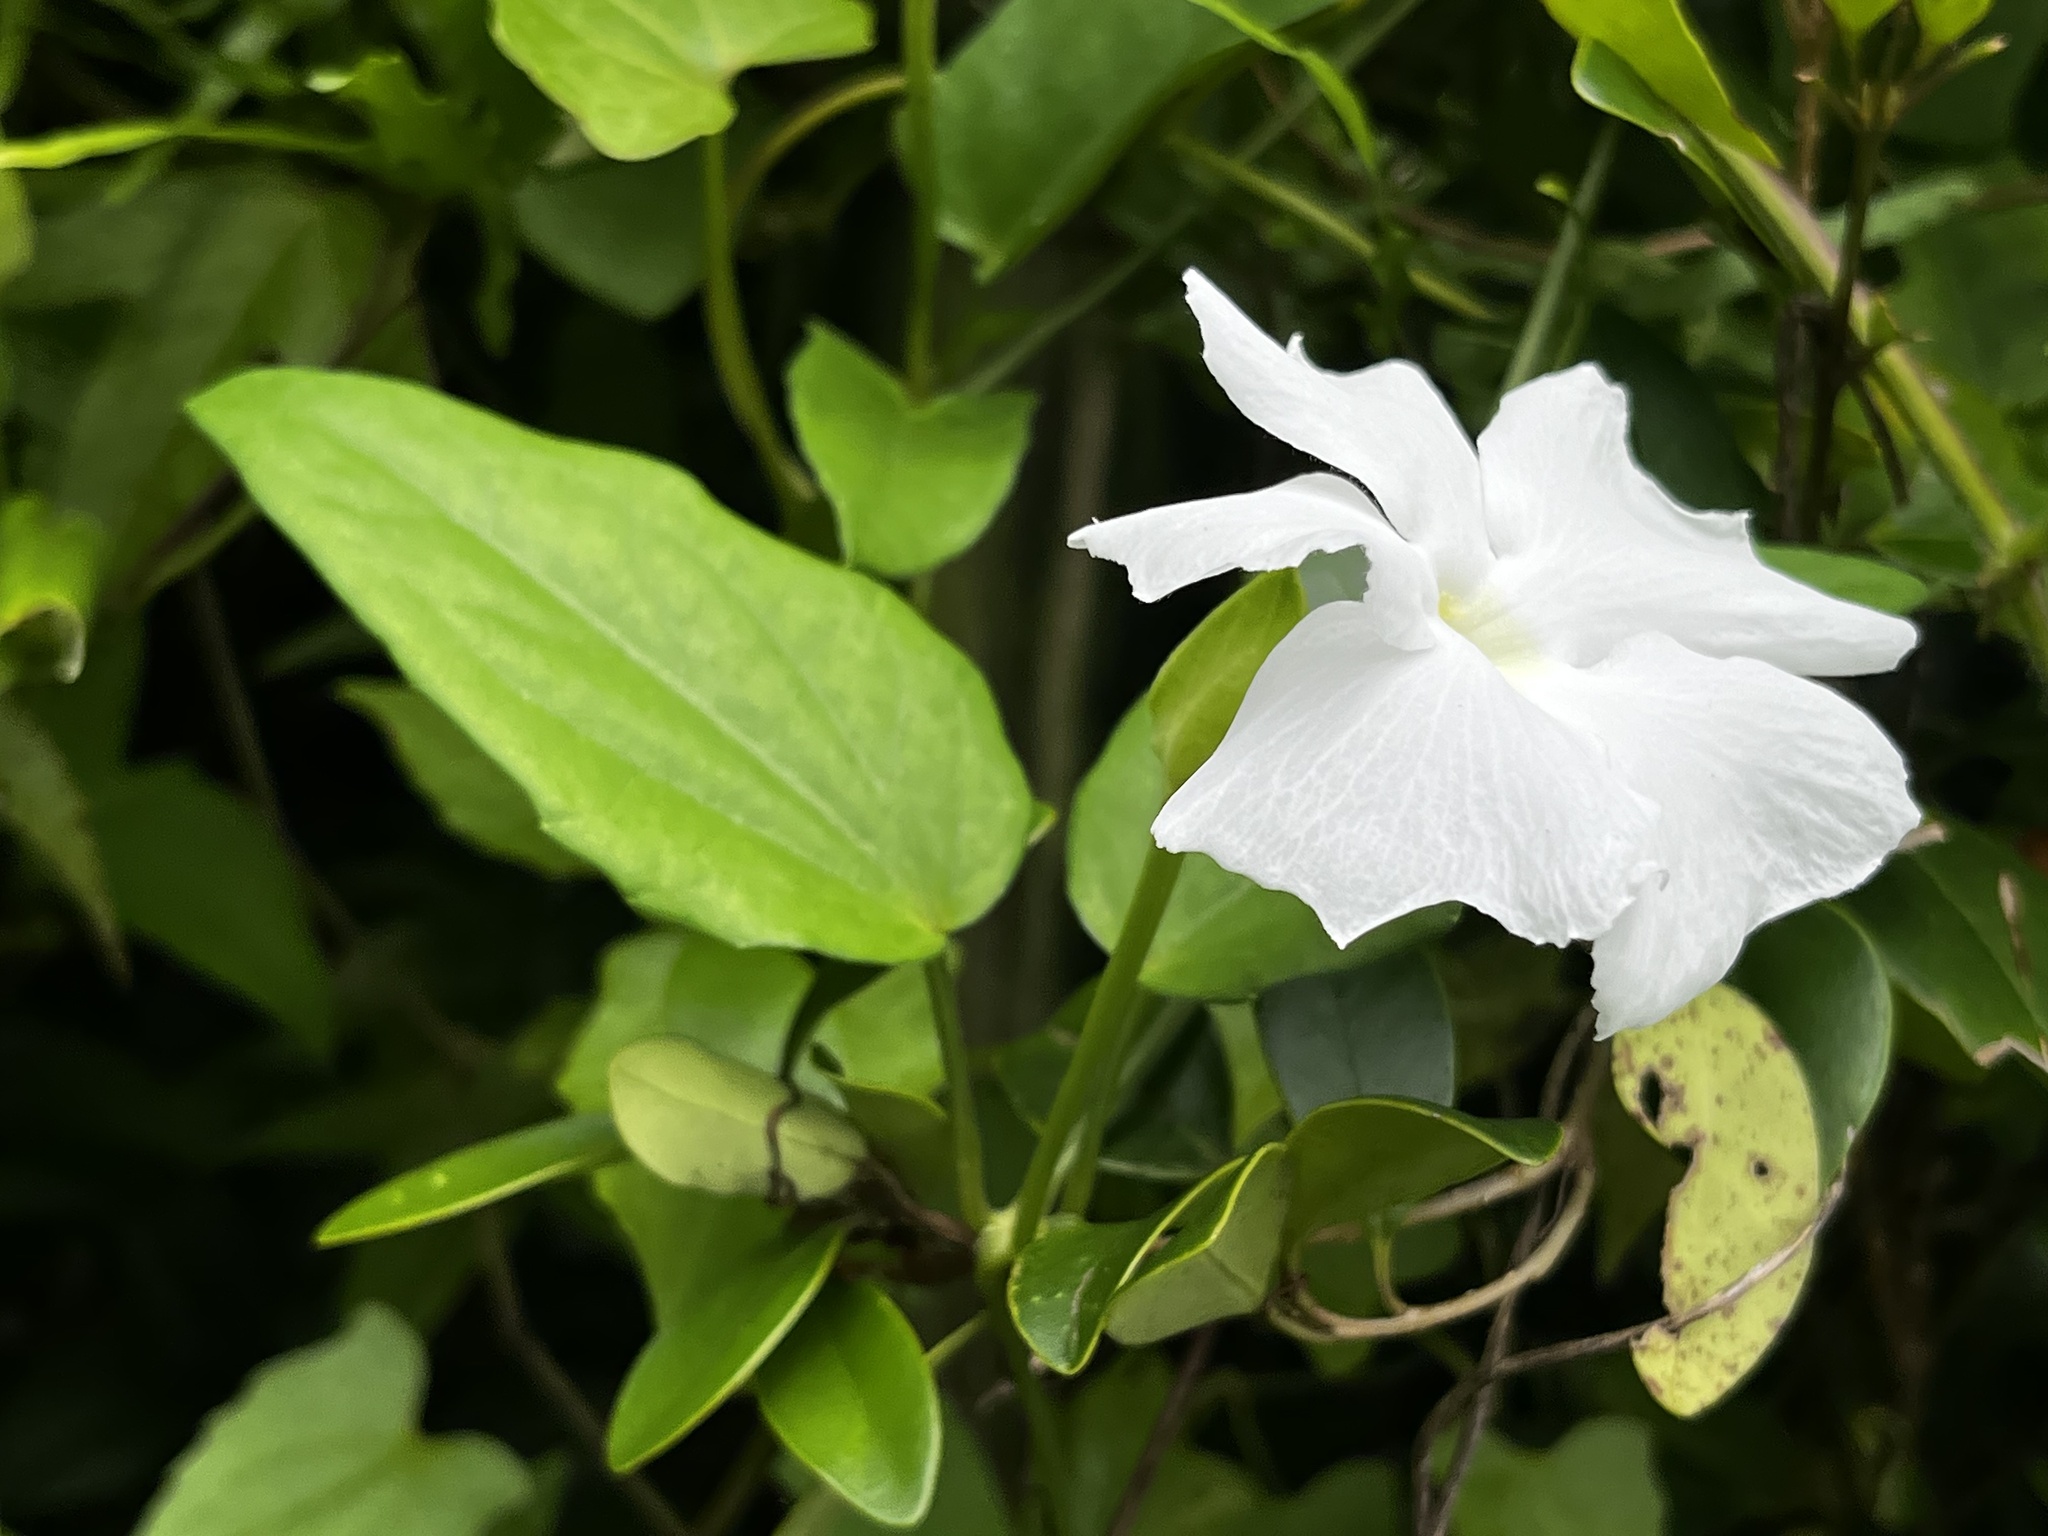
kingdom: Plantae
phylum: Tracheophyta
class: Magnoliopsida
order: Lamiales
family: Acanthaceae
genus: Thunbergia
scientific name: Thunbergia fragrans
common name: Whitelady
